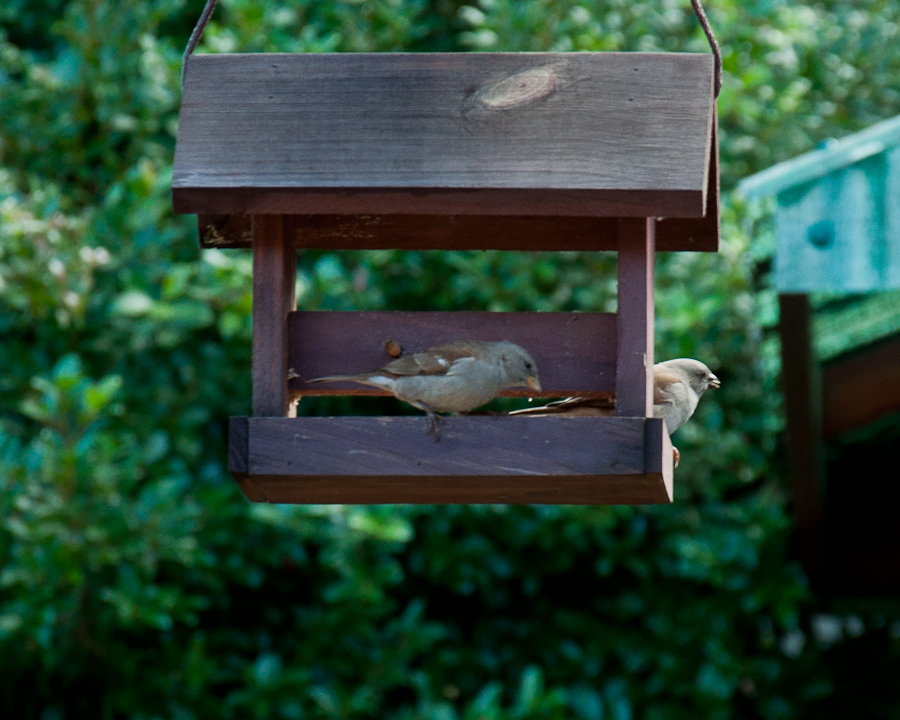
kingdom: Animalia
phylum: Chordata
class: Aves
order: Passeriformes
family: Passeridae
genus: Passer
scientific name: Passer diffusus
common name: Southern grey-headed sparrow
